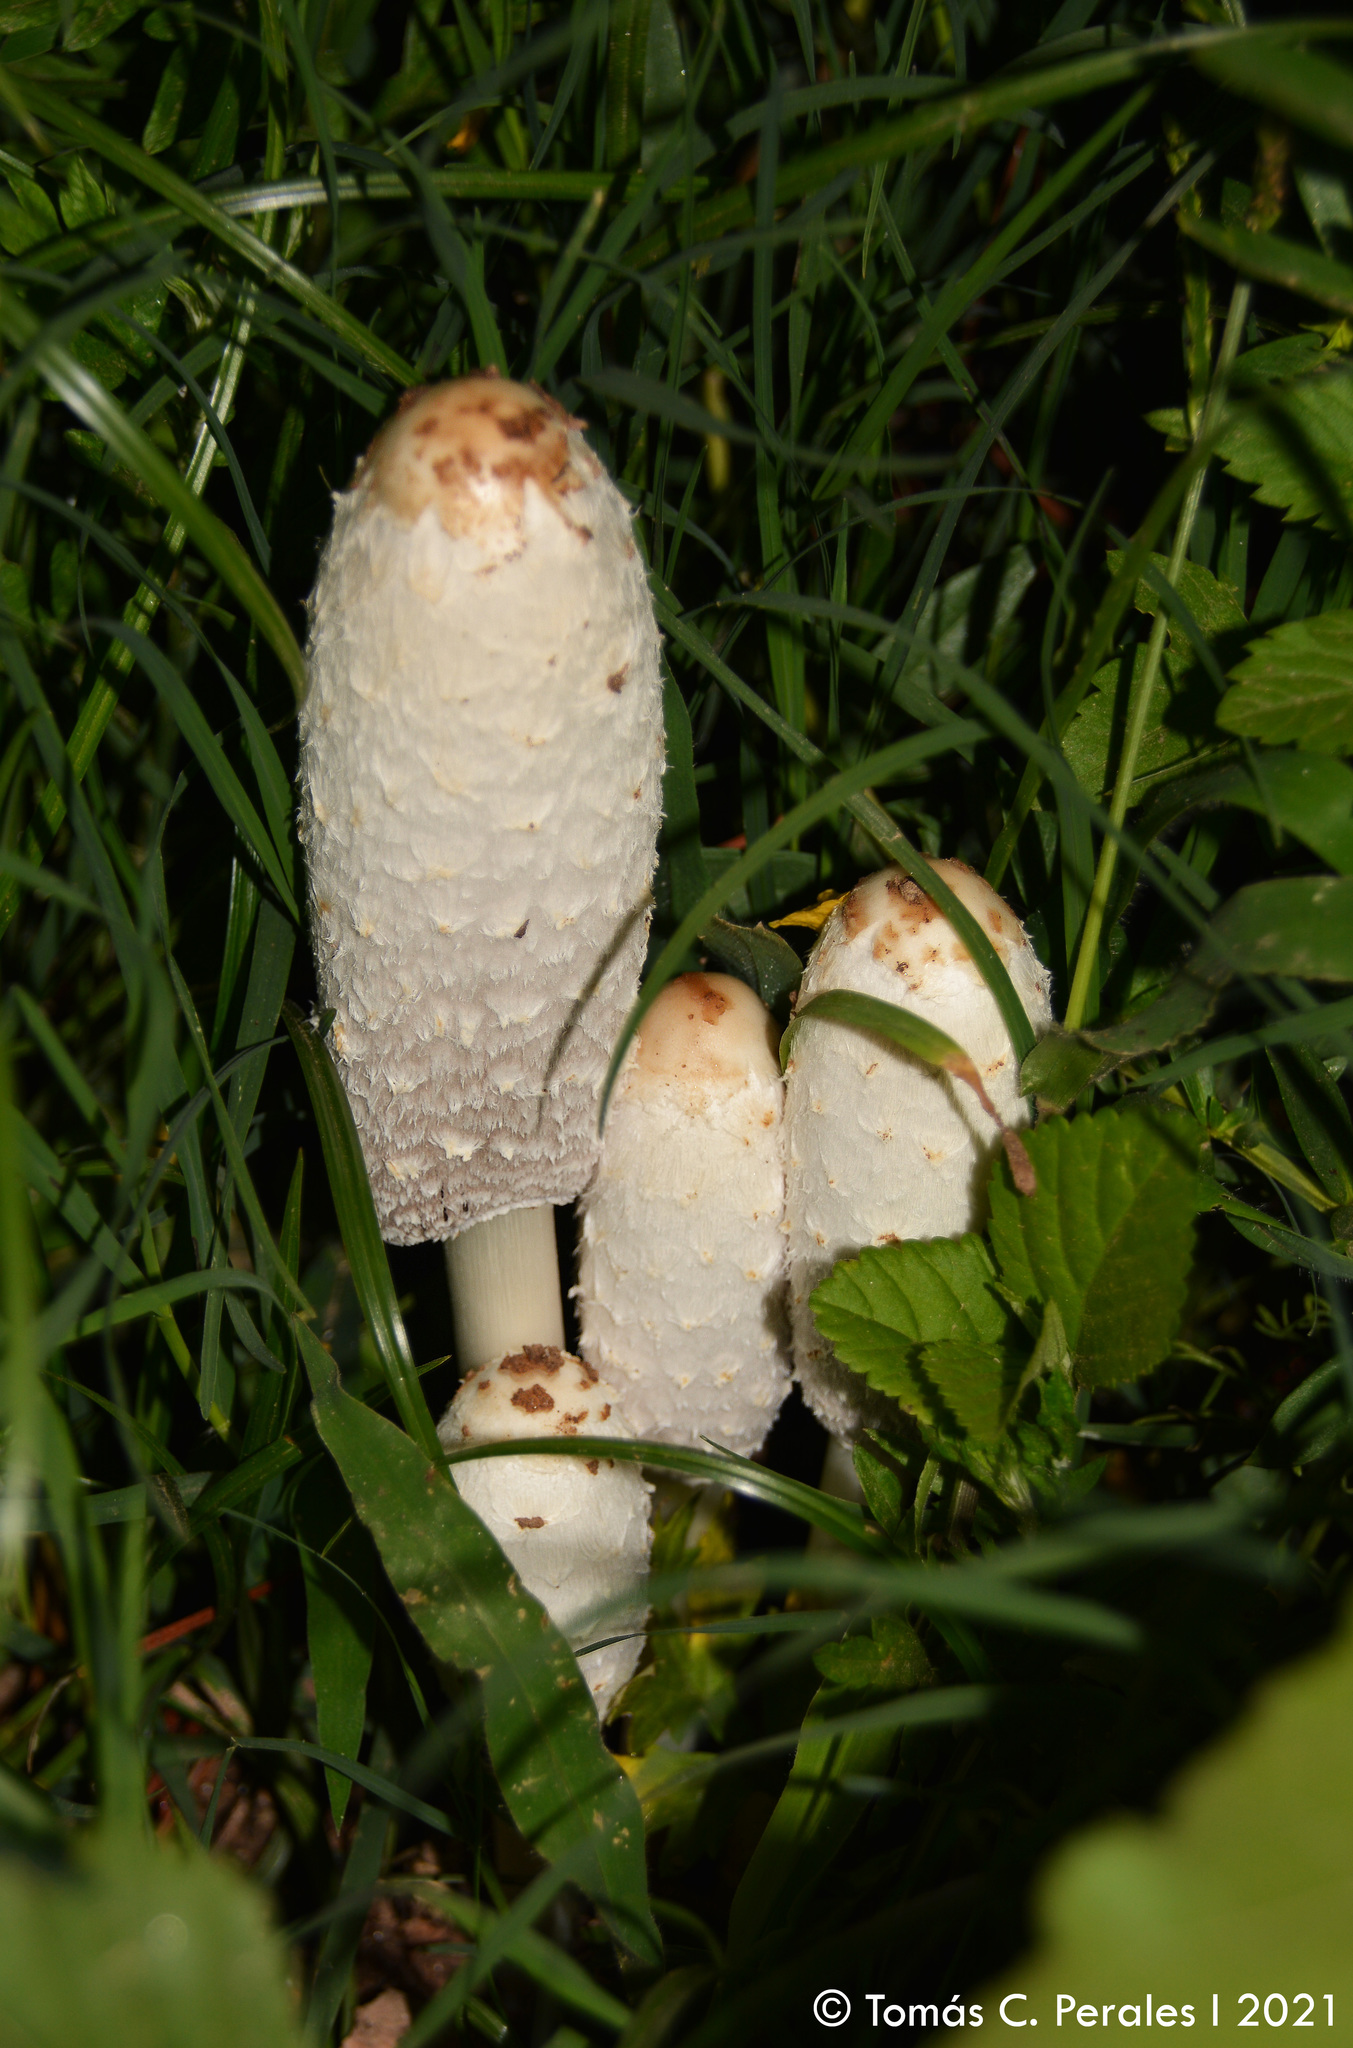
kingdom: Fungi
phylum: Basidiomycota
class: Agaricomycetes
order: Agaricales
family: Agaricaceae
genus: Coprinus
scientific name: Coprinus comatus
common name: Lawyer's wig
